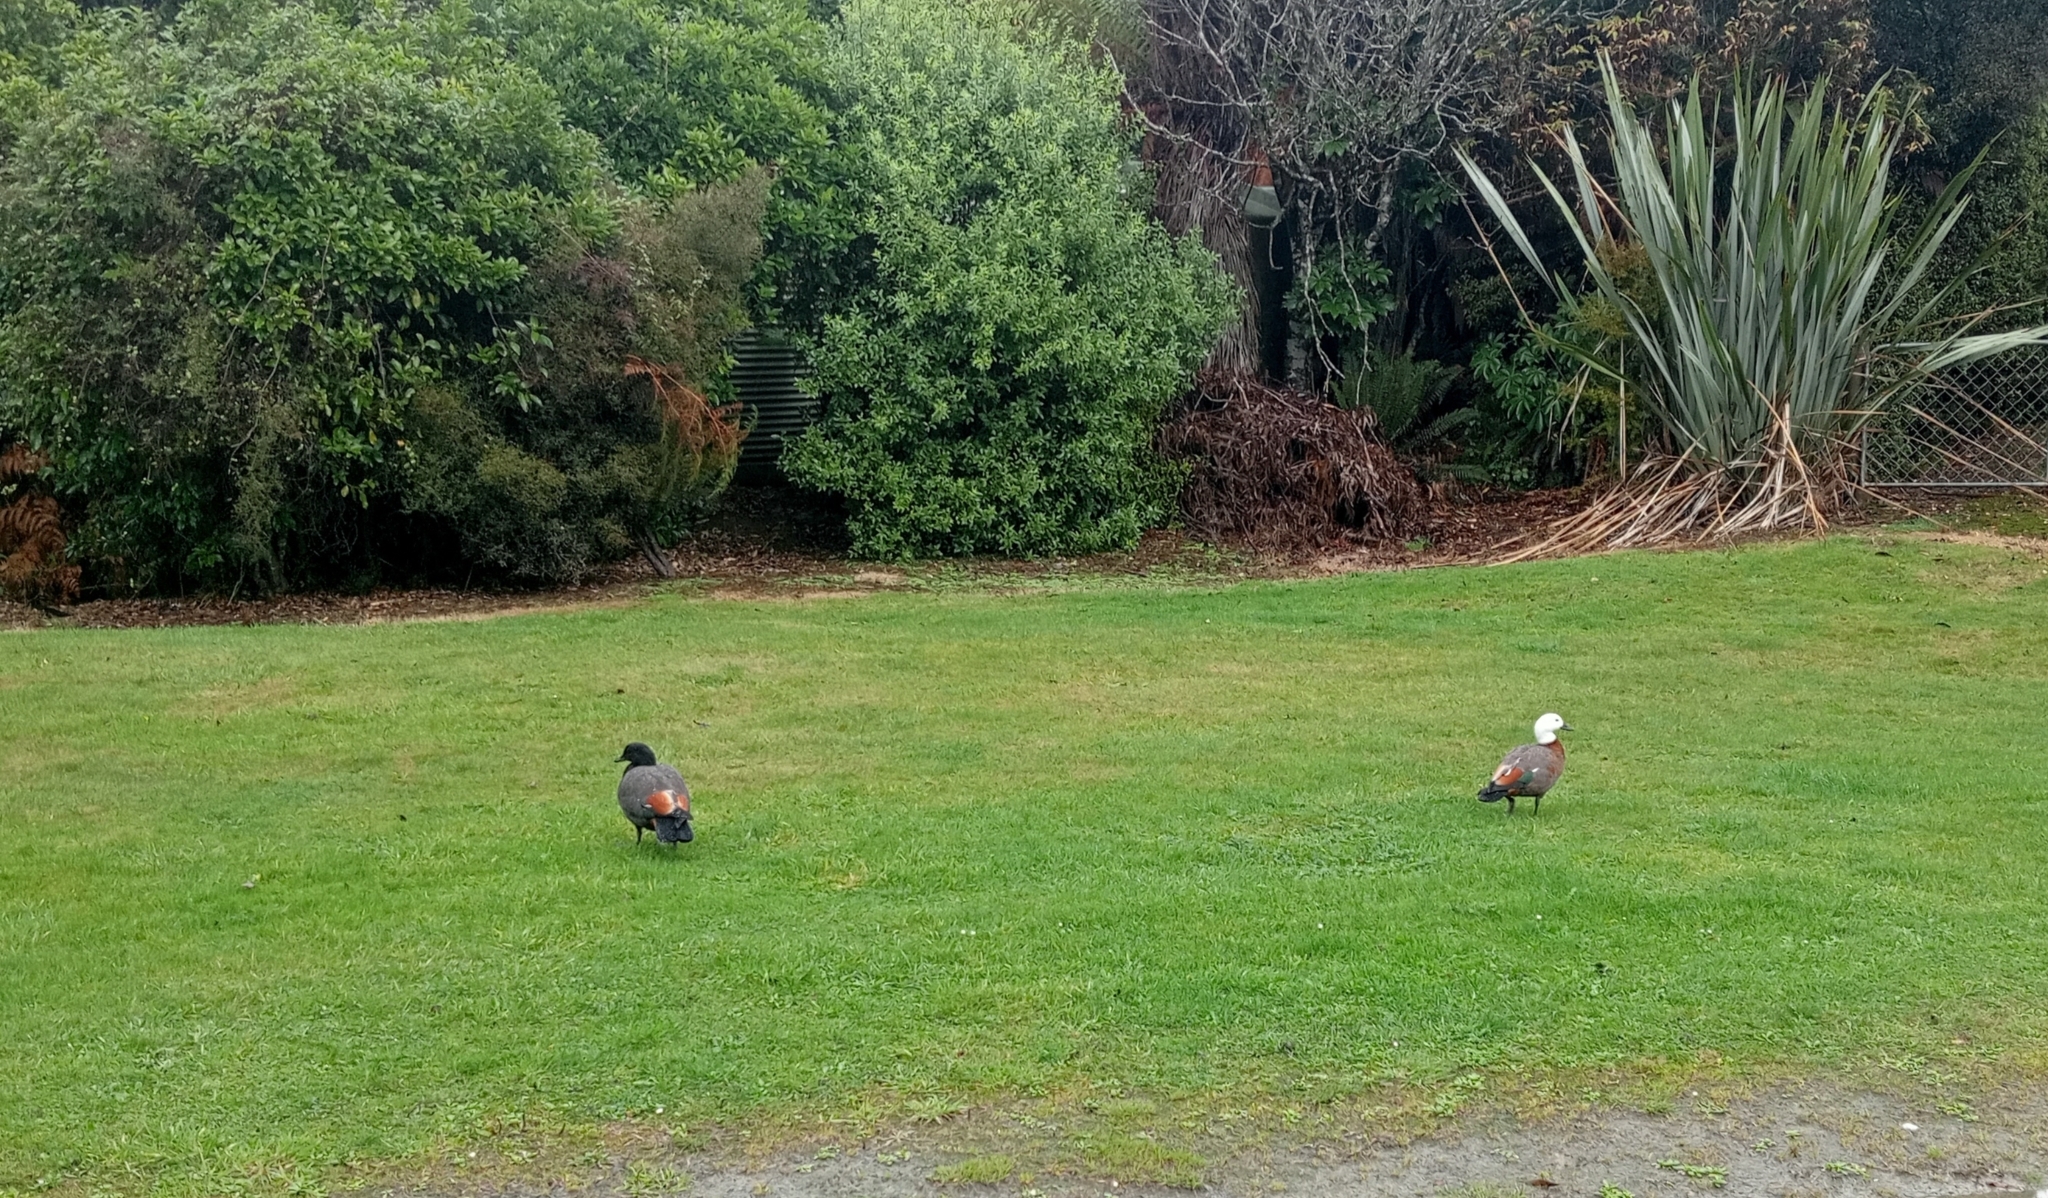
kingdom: Animalia
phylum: Chordata
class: Aves
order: Anseriformes
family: Anatidae
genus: Tadorna
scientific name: Tadorna variegata
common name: Paradise shelduck
